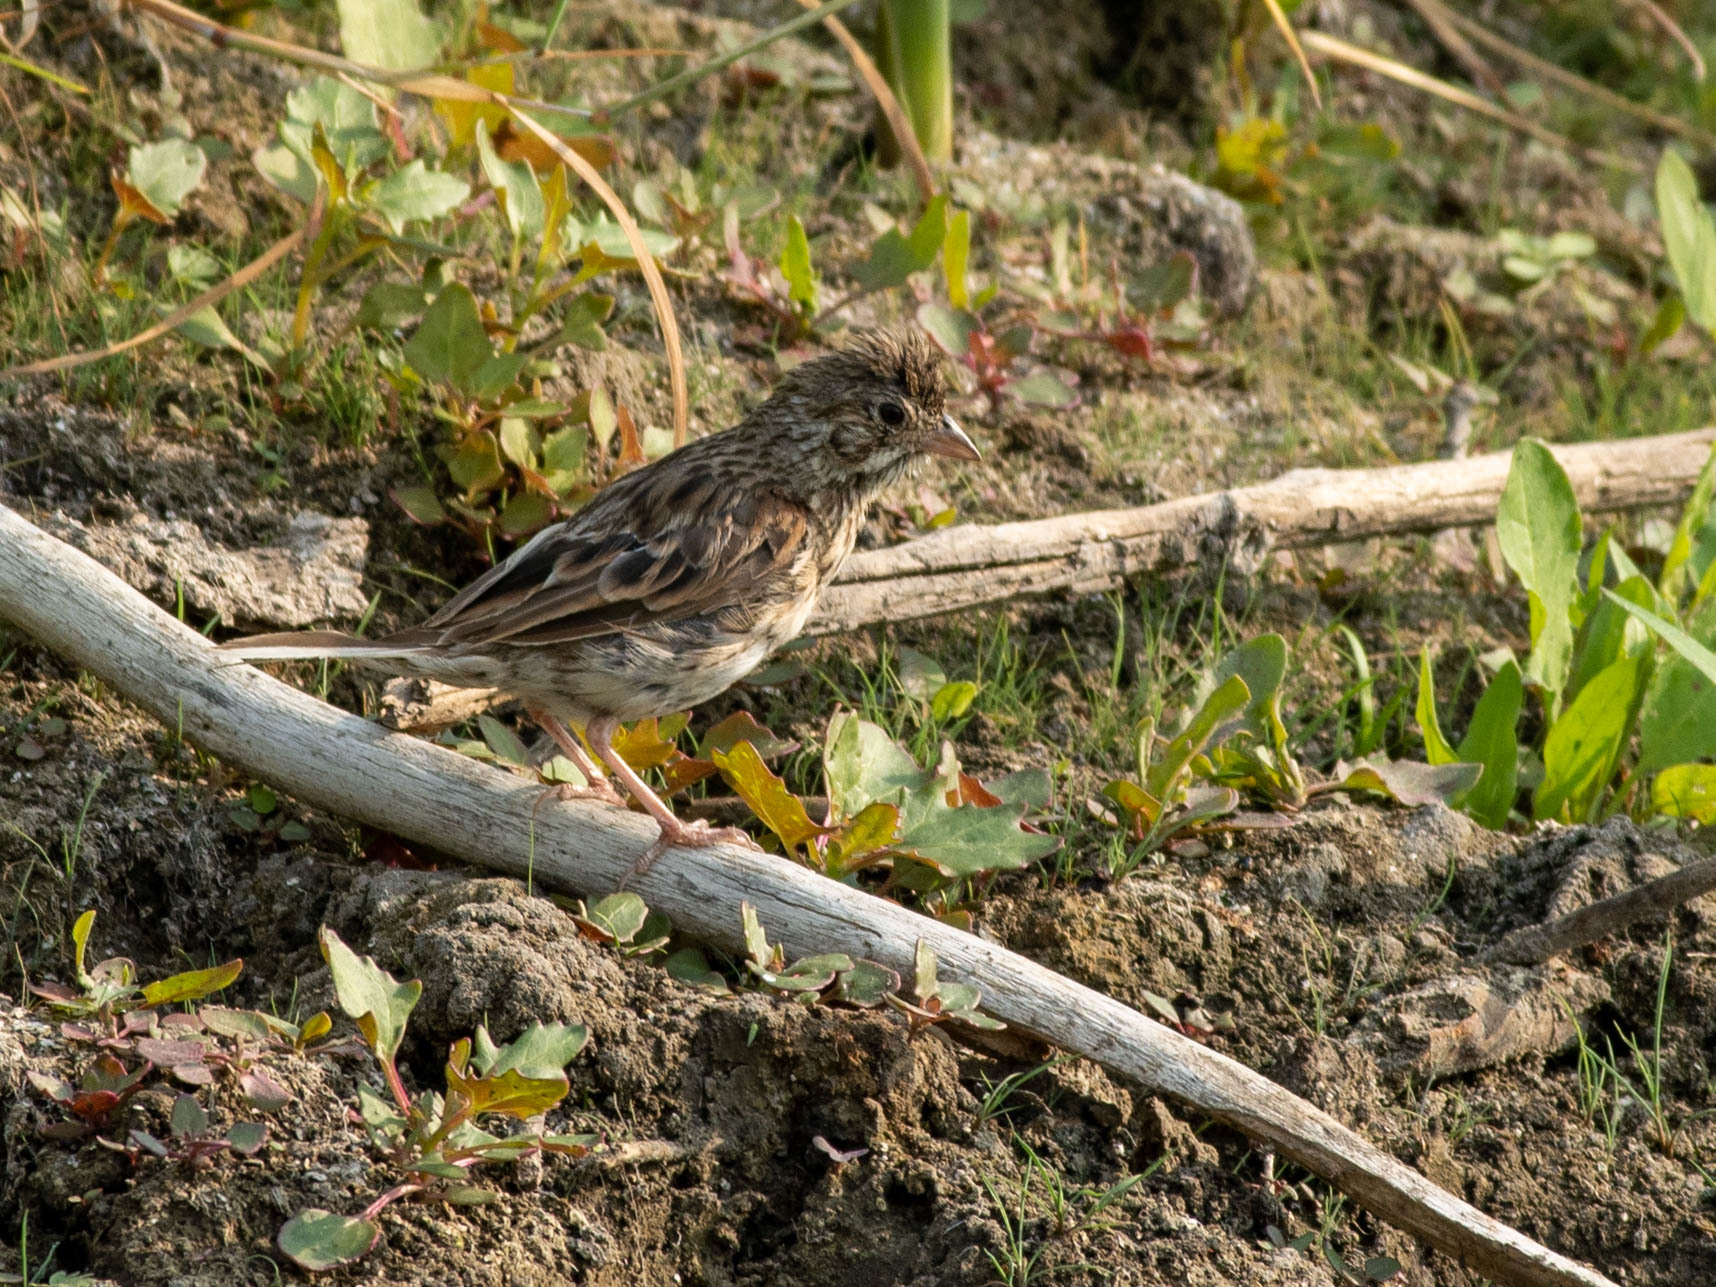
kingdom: Animalia
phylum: Chordata
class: Aves
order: Passeriformes
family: Passerellidae
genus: Pooecetes
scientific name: Pooecetes gramineus
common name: Vesper sparrow
